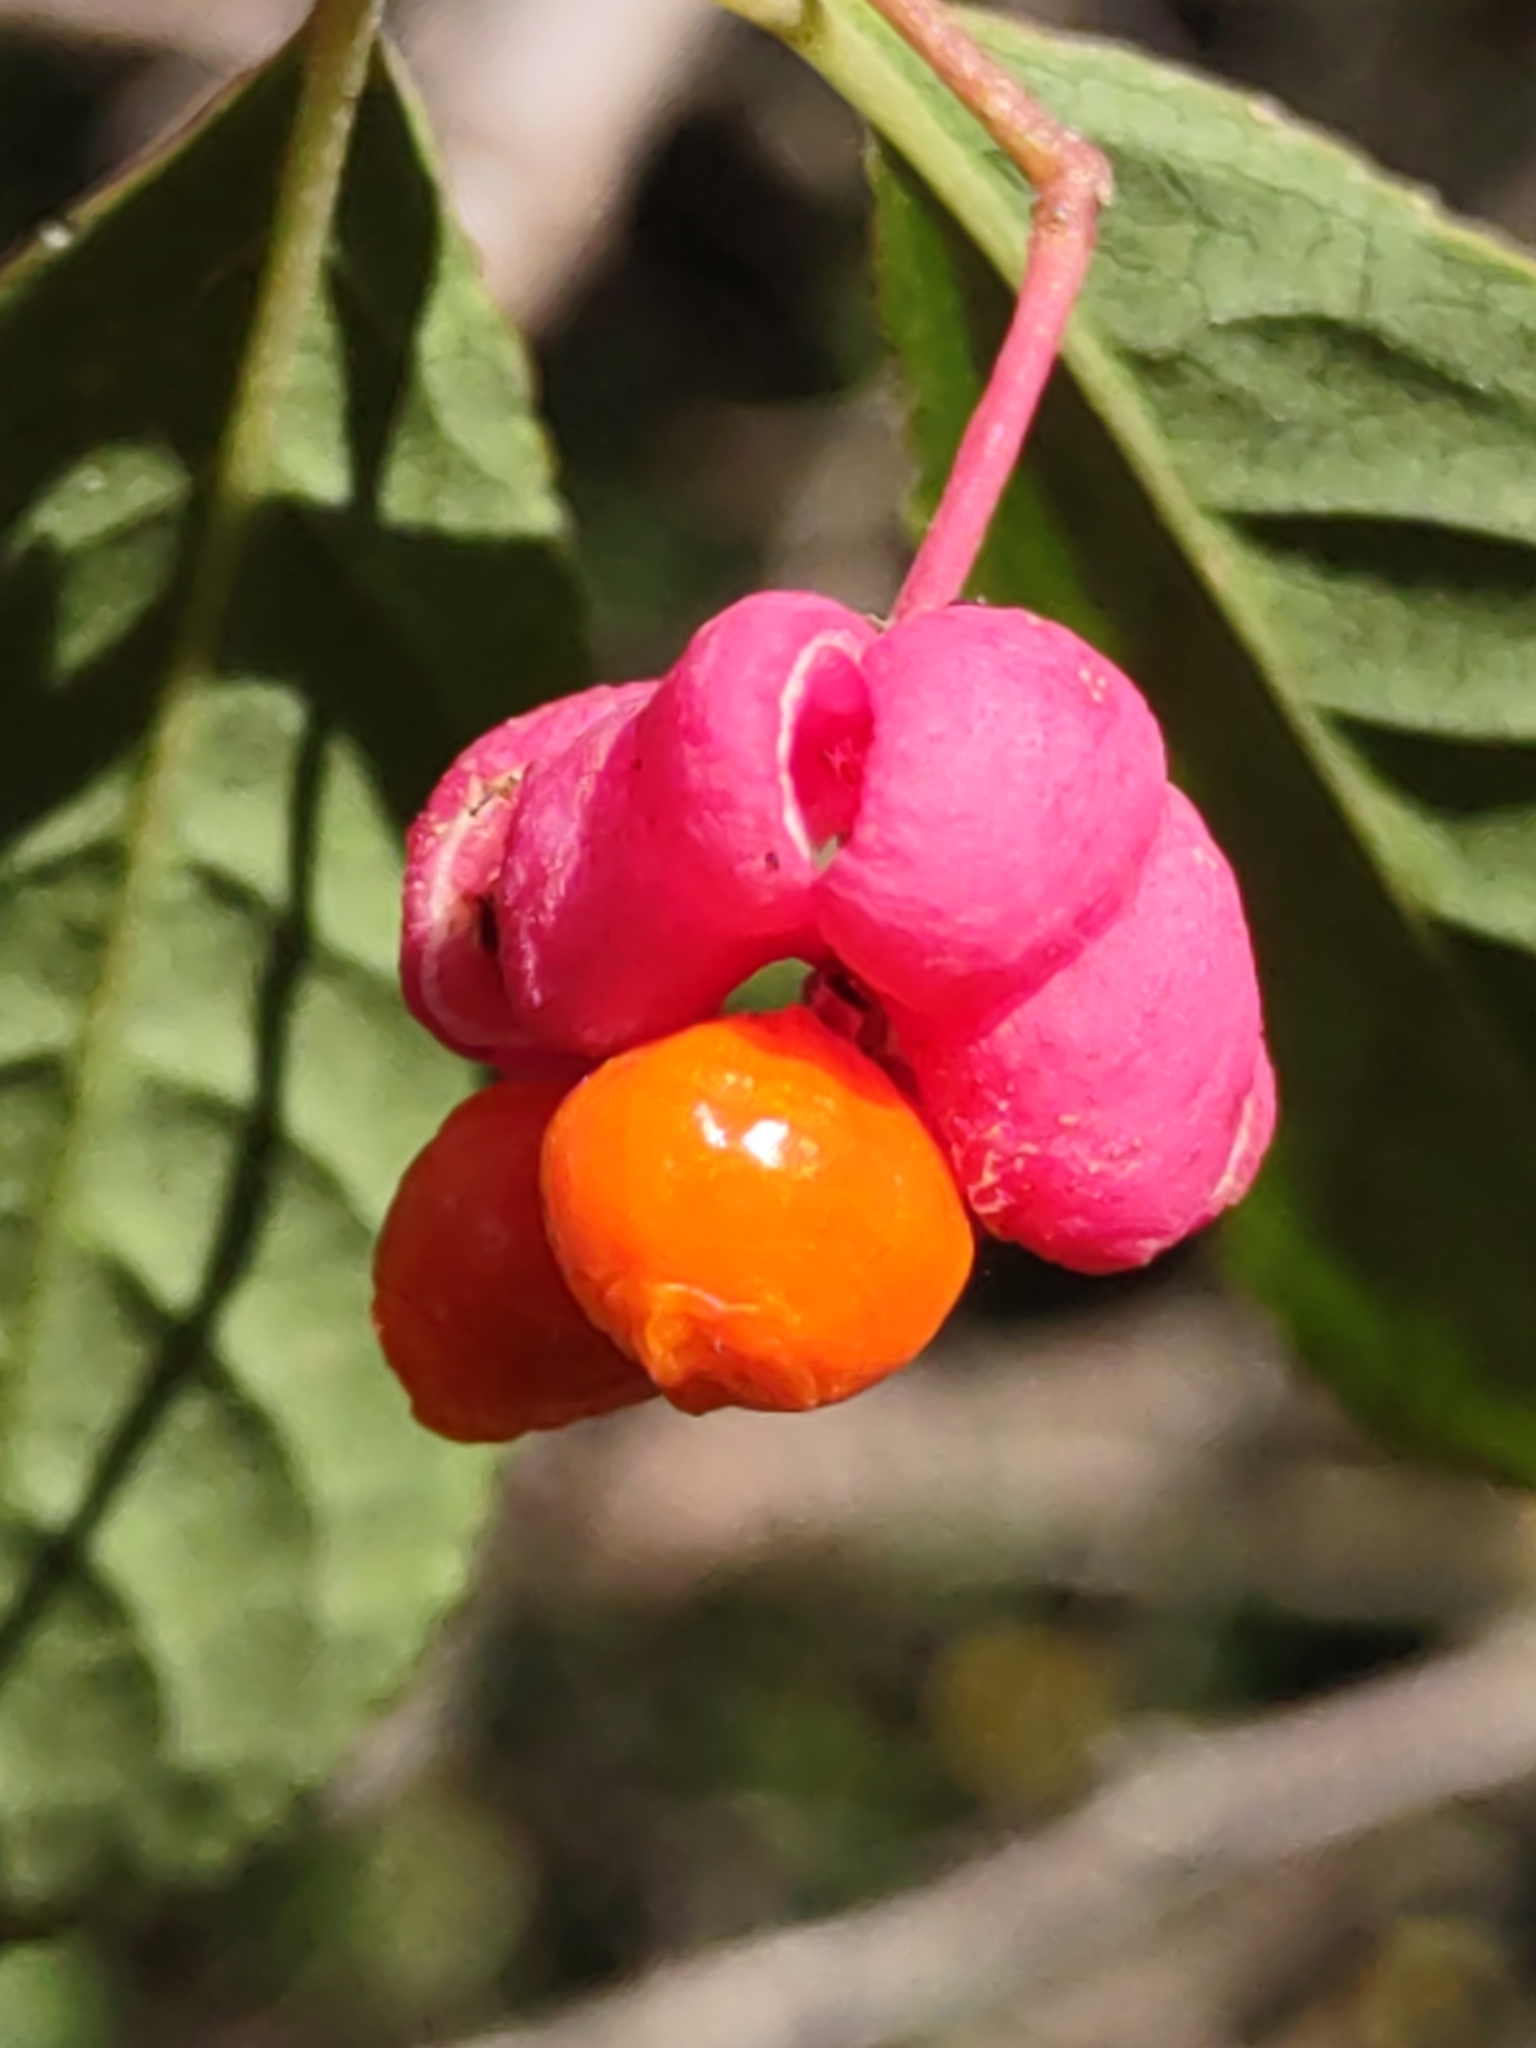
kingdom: Plantae
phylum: Tracheophyta
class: Magnoliopsida
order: Celastrales
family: Celastraceae
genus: Euonymus
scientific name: Euonymus europaeus
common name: Spindle
